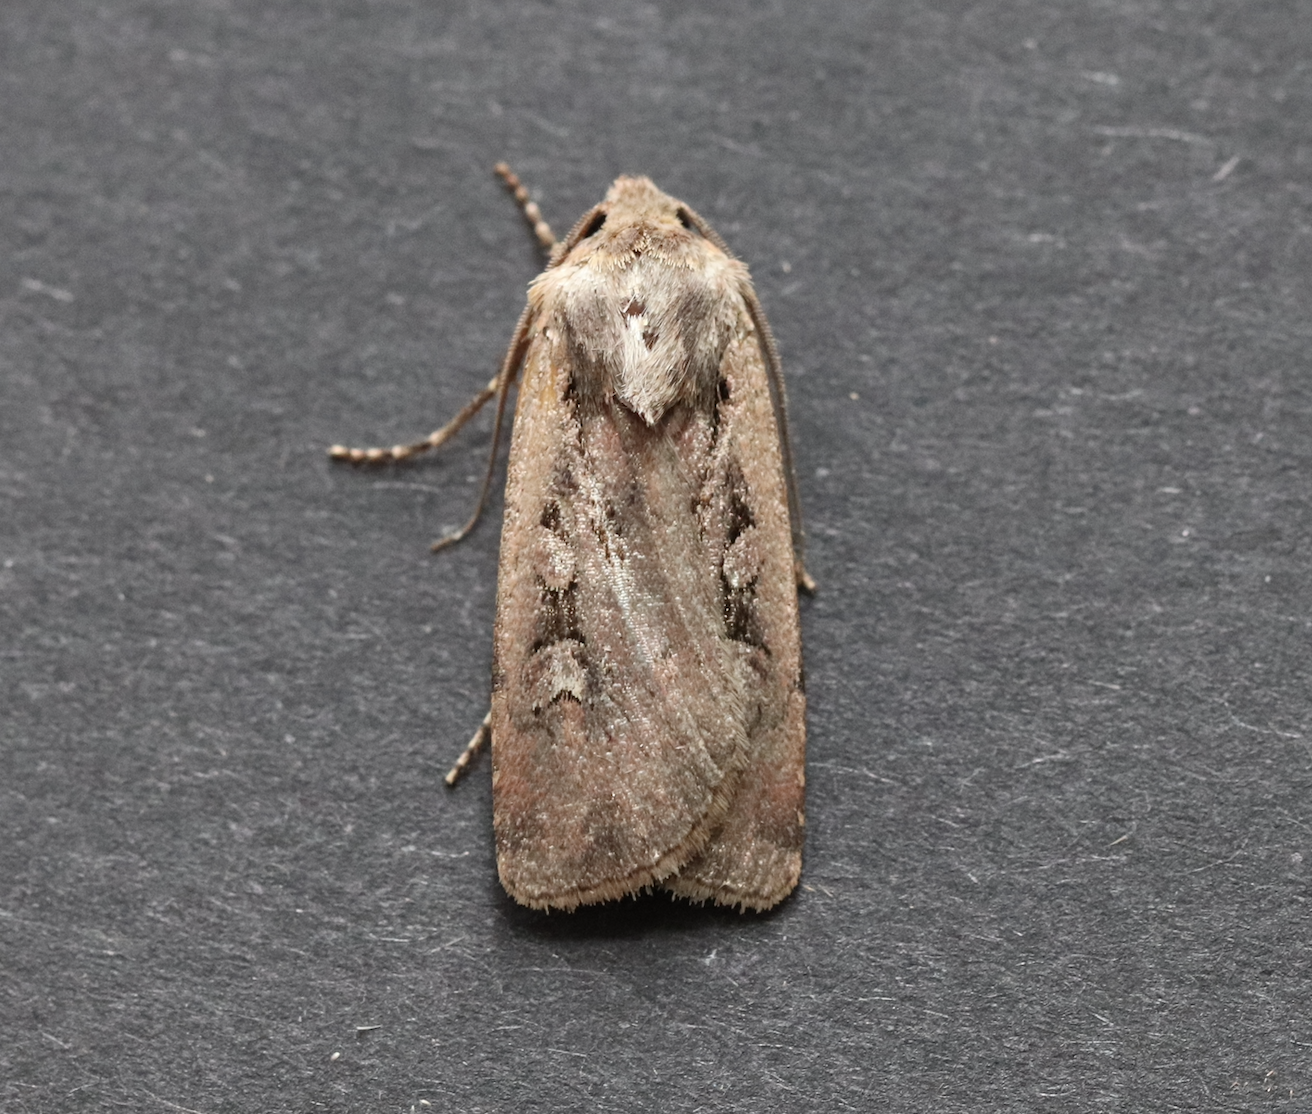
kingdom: Animalia
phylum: Arthropoda
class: Insecta
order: Lepidoptera
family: Noctuidae
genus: Euxoa
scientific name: Euxoa obelisca
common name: Square-spot dart
